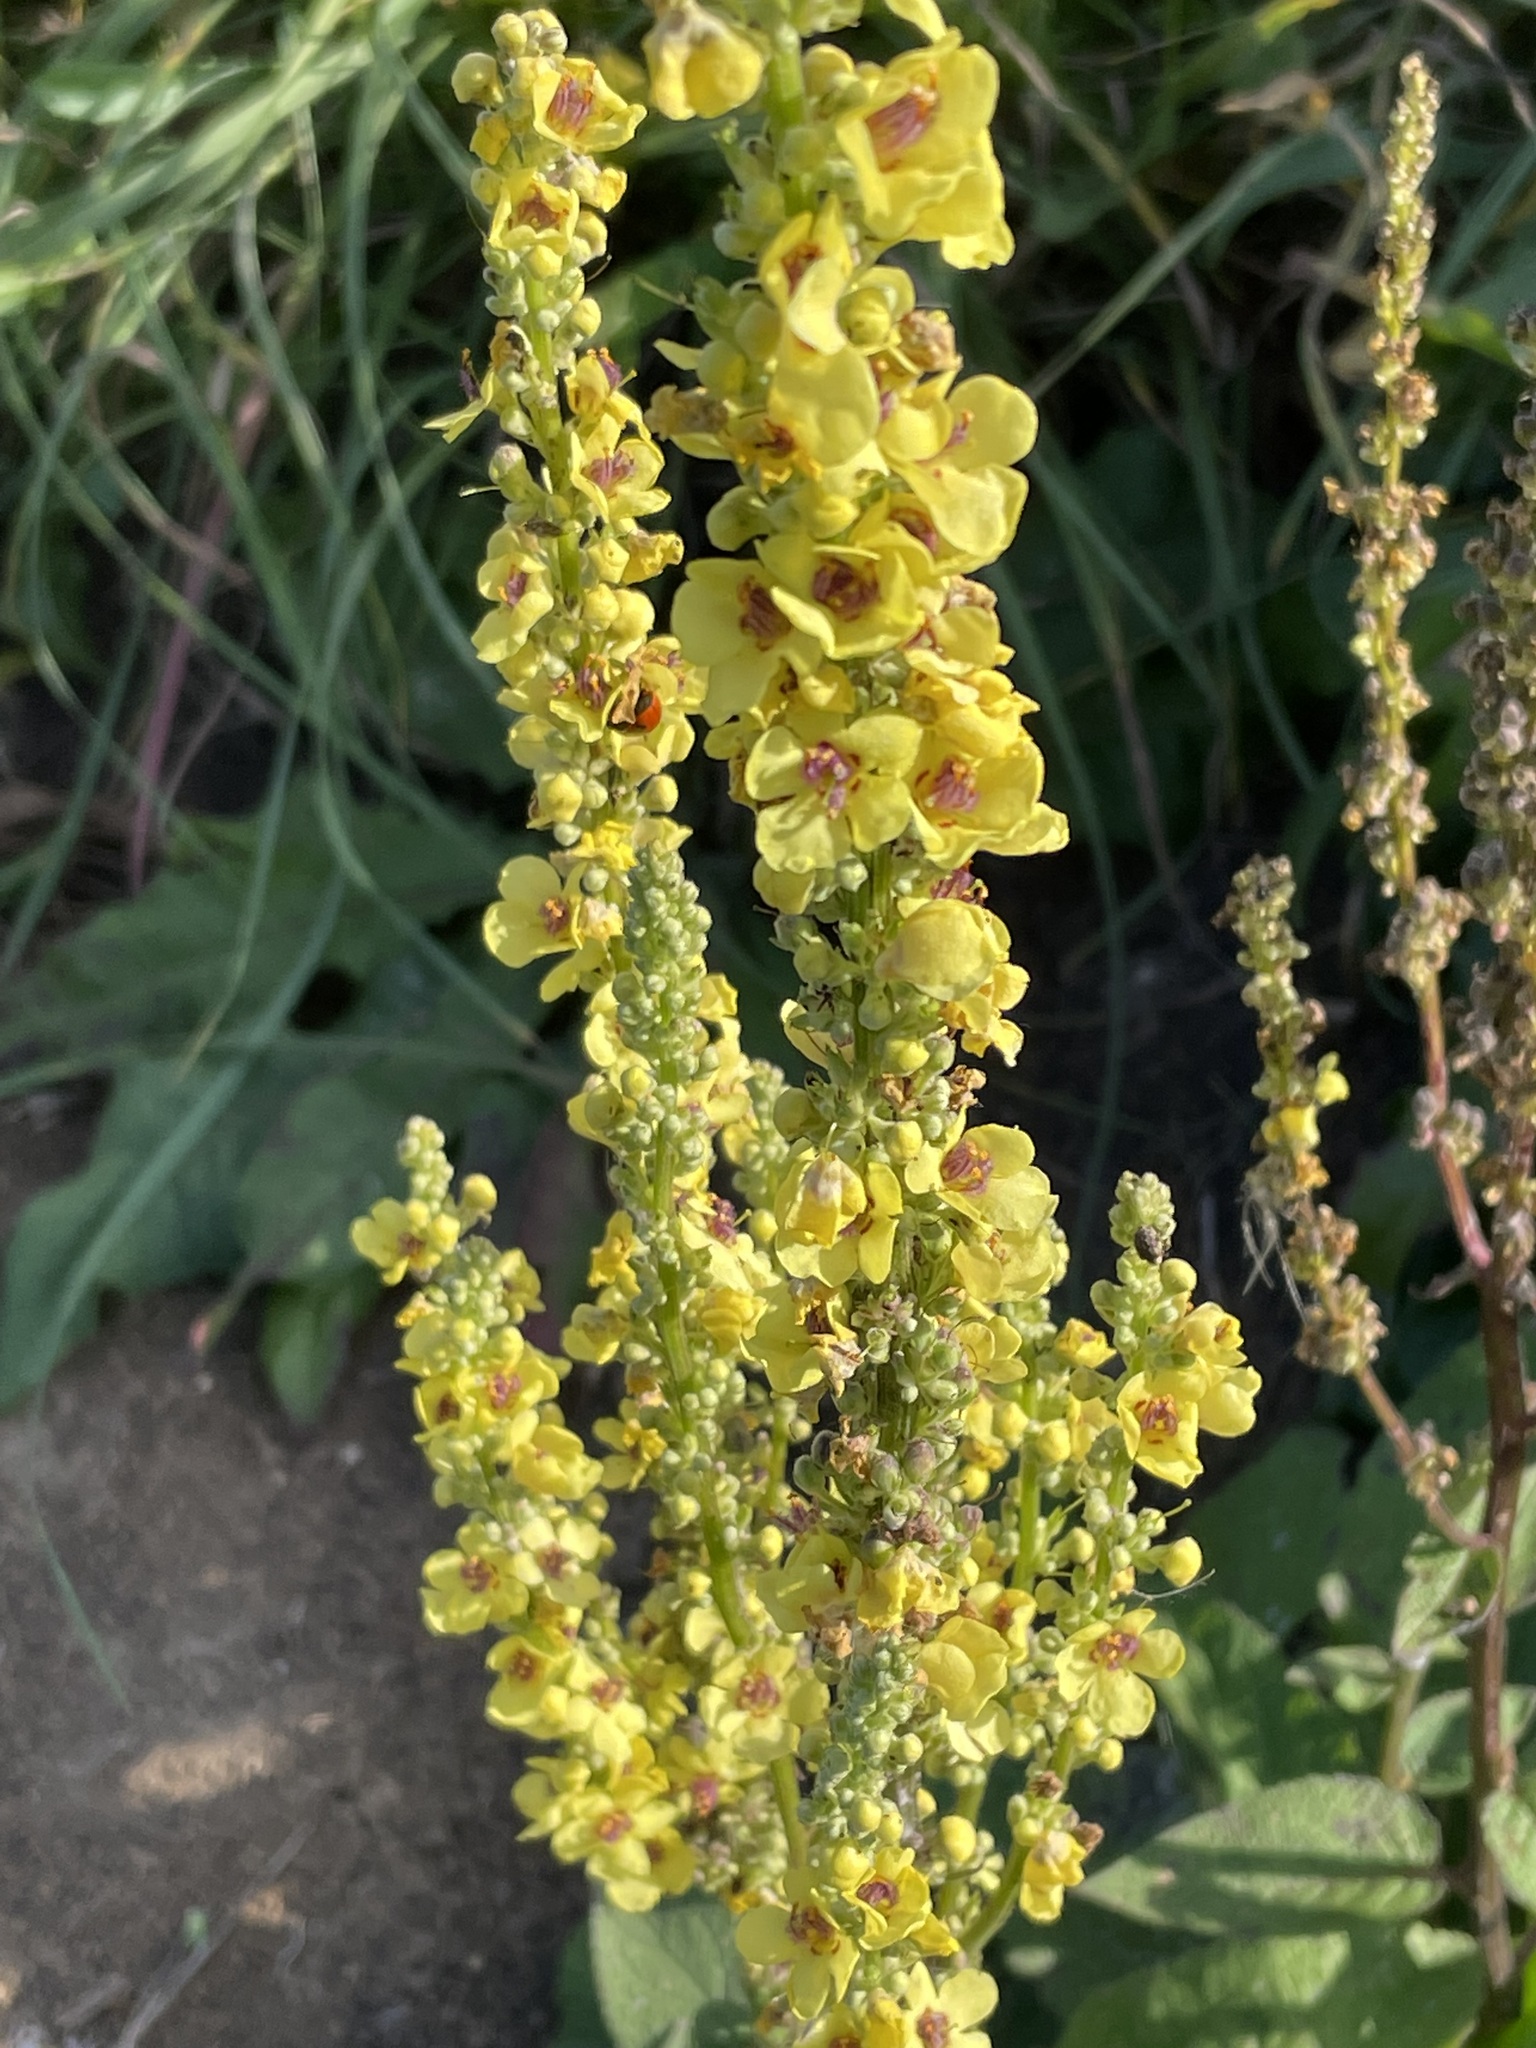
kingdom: Plantae
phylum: Tracheophyta
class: Magnoliopsida
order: Lamiales
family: Scrophulariaceae
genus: Verbascum
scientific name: Verbascum nigrum
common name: Dark mullein
